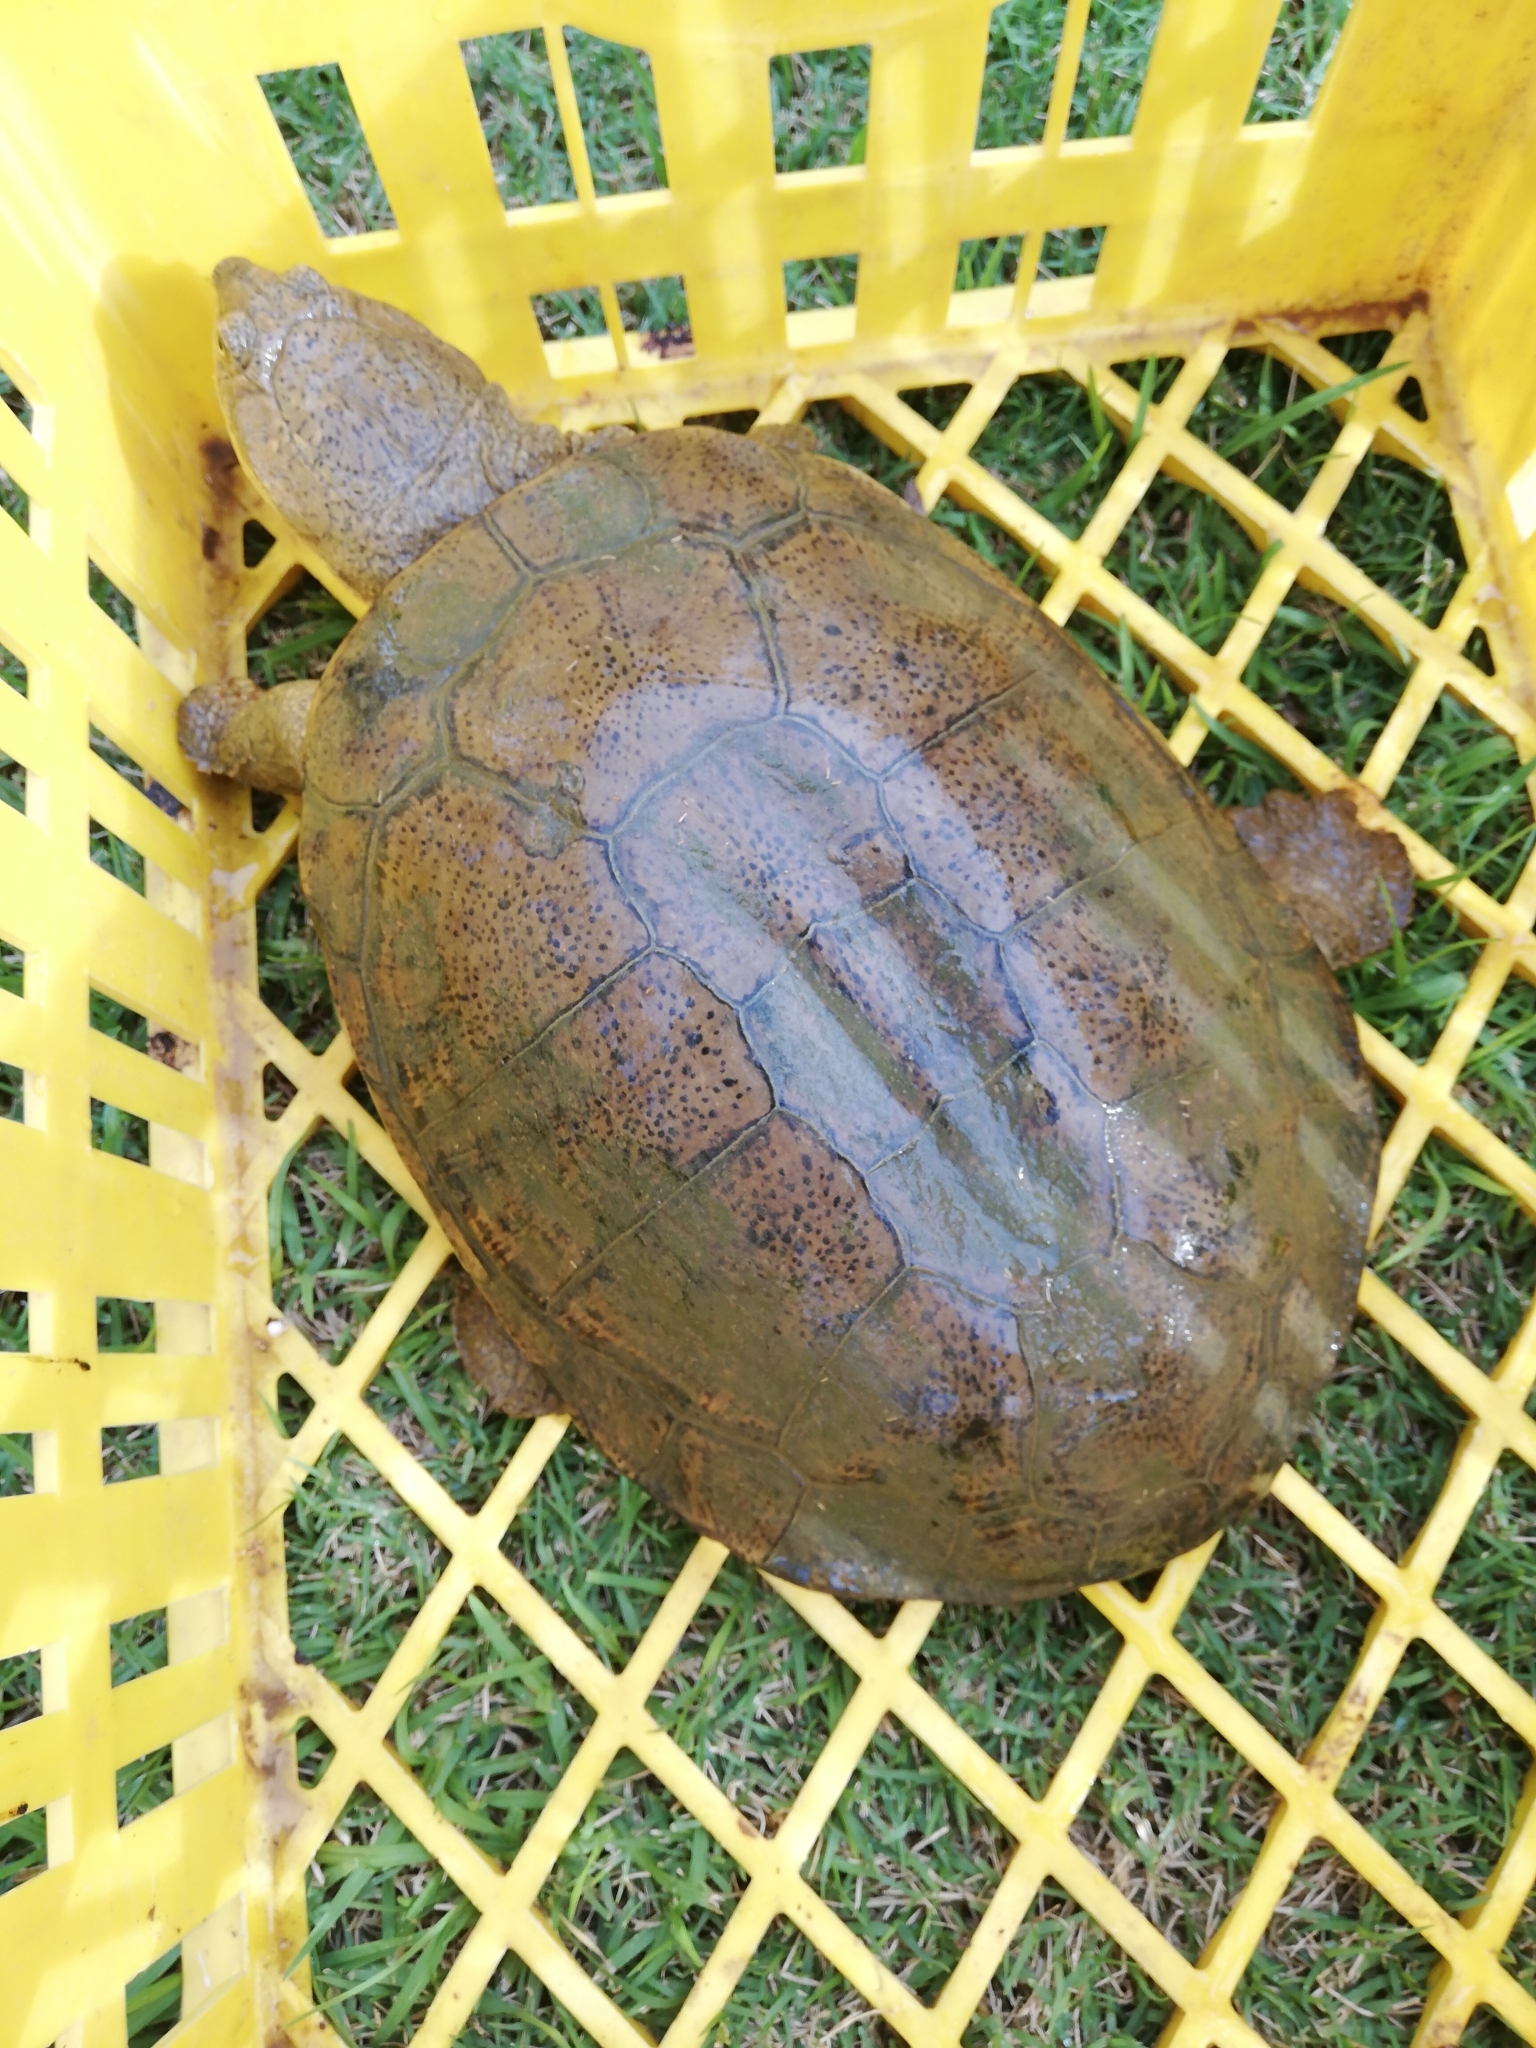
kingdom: Animalia
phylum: Chordata
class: Testudines
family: Pelomedusidae
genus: Pelomedusa
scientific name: Pelomedusa galeata
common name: South african helmeted terrapin
